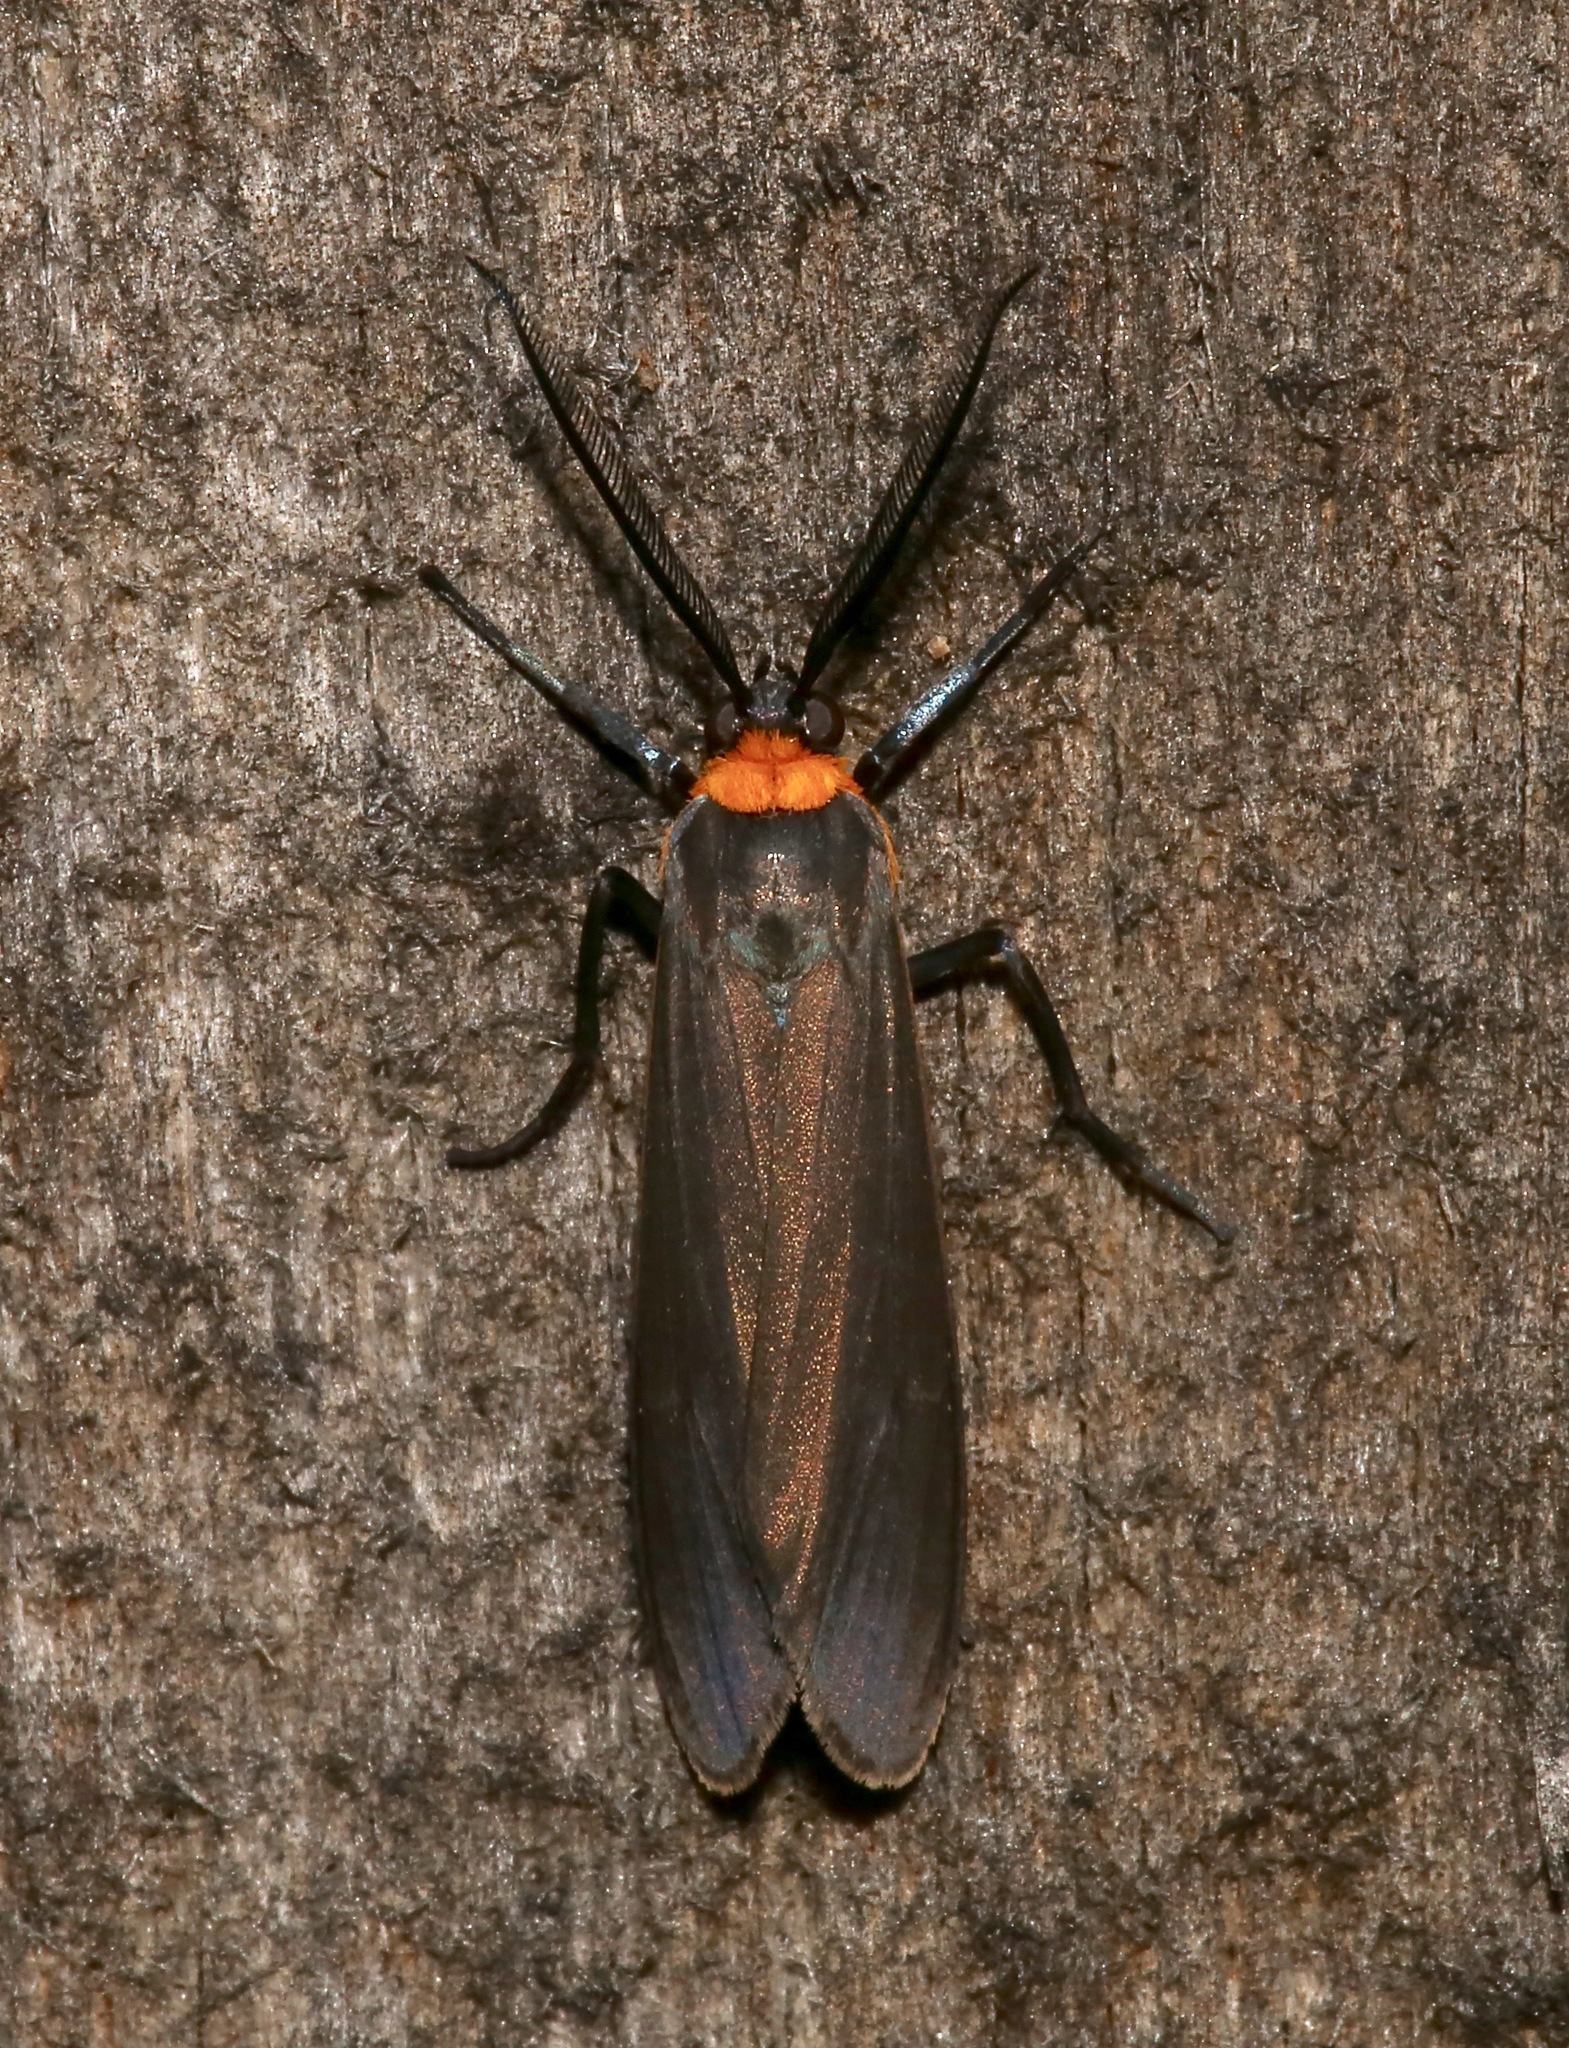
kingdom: Animalia
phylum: Arthropoda
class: Insecta
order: Lepidoptera
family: Erebidae
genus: Cisseps
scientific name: Cisseps fulvicollis
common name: Yellow-collared scape moth
